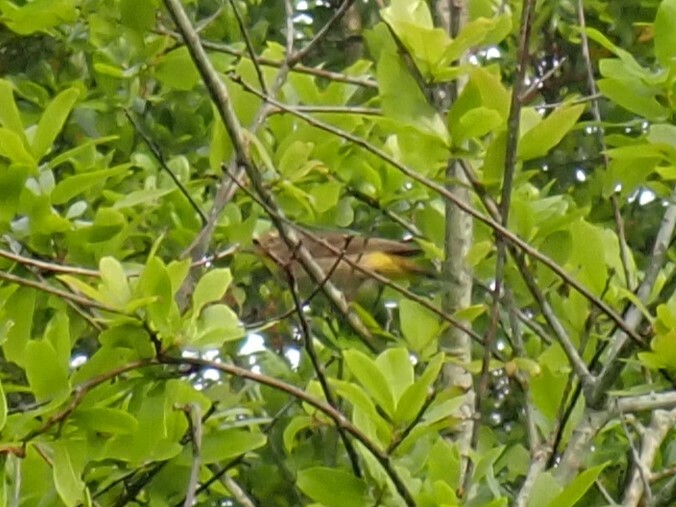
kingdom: Animalia
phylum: Chordata
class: Aves
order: Passeriformes
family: Parulidae
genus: Setophaga
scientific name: Setophaga palmarum
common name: Palm warbler
